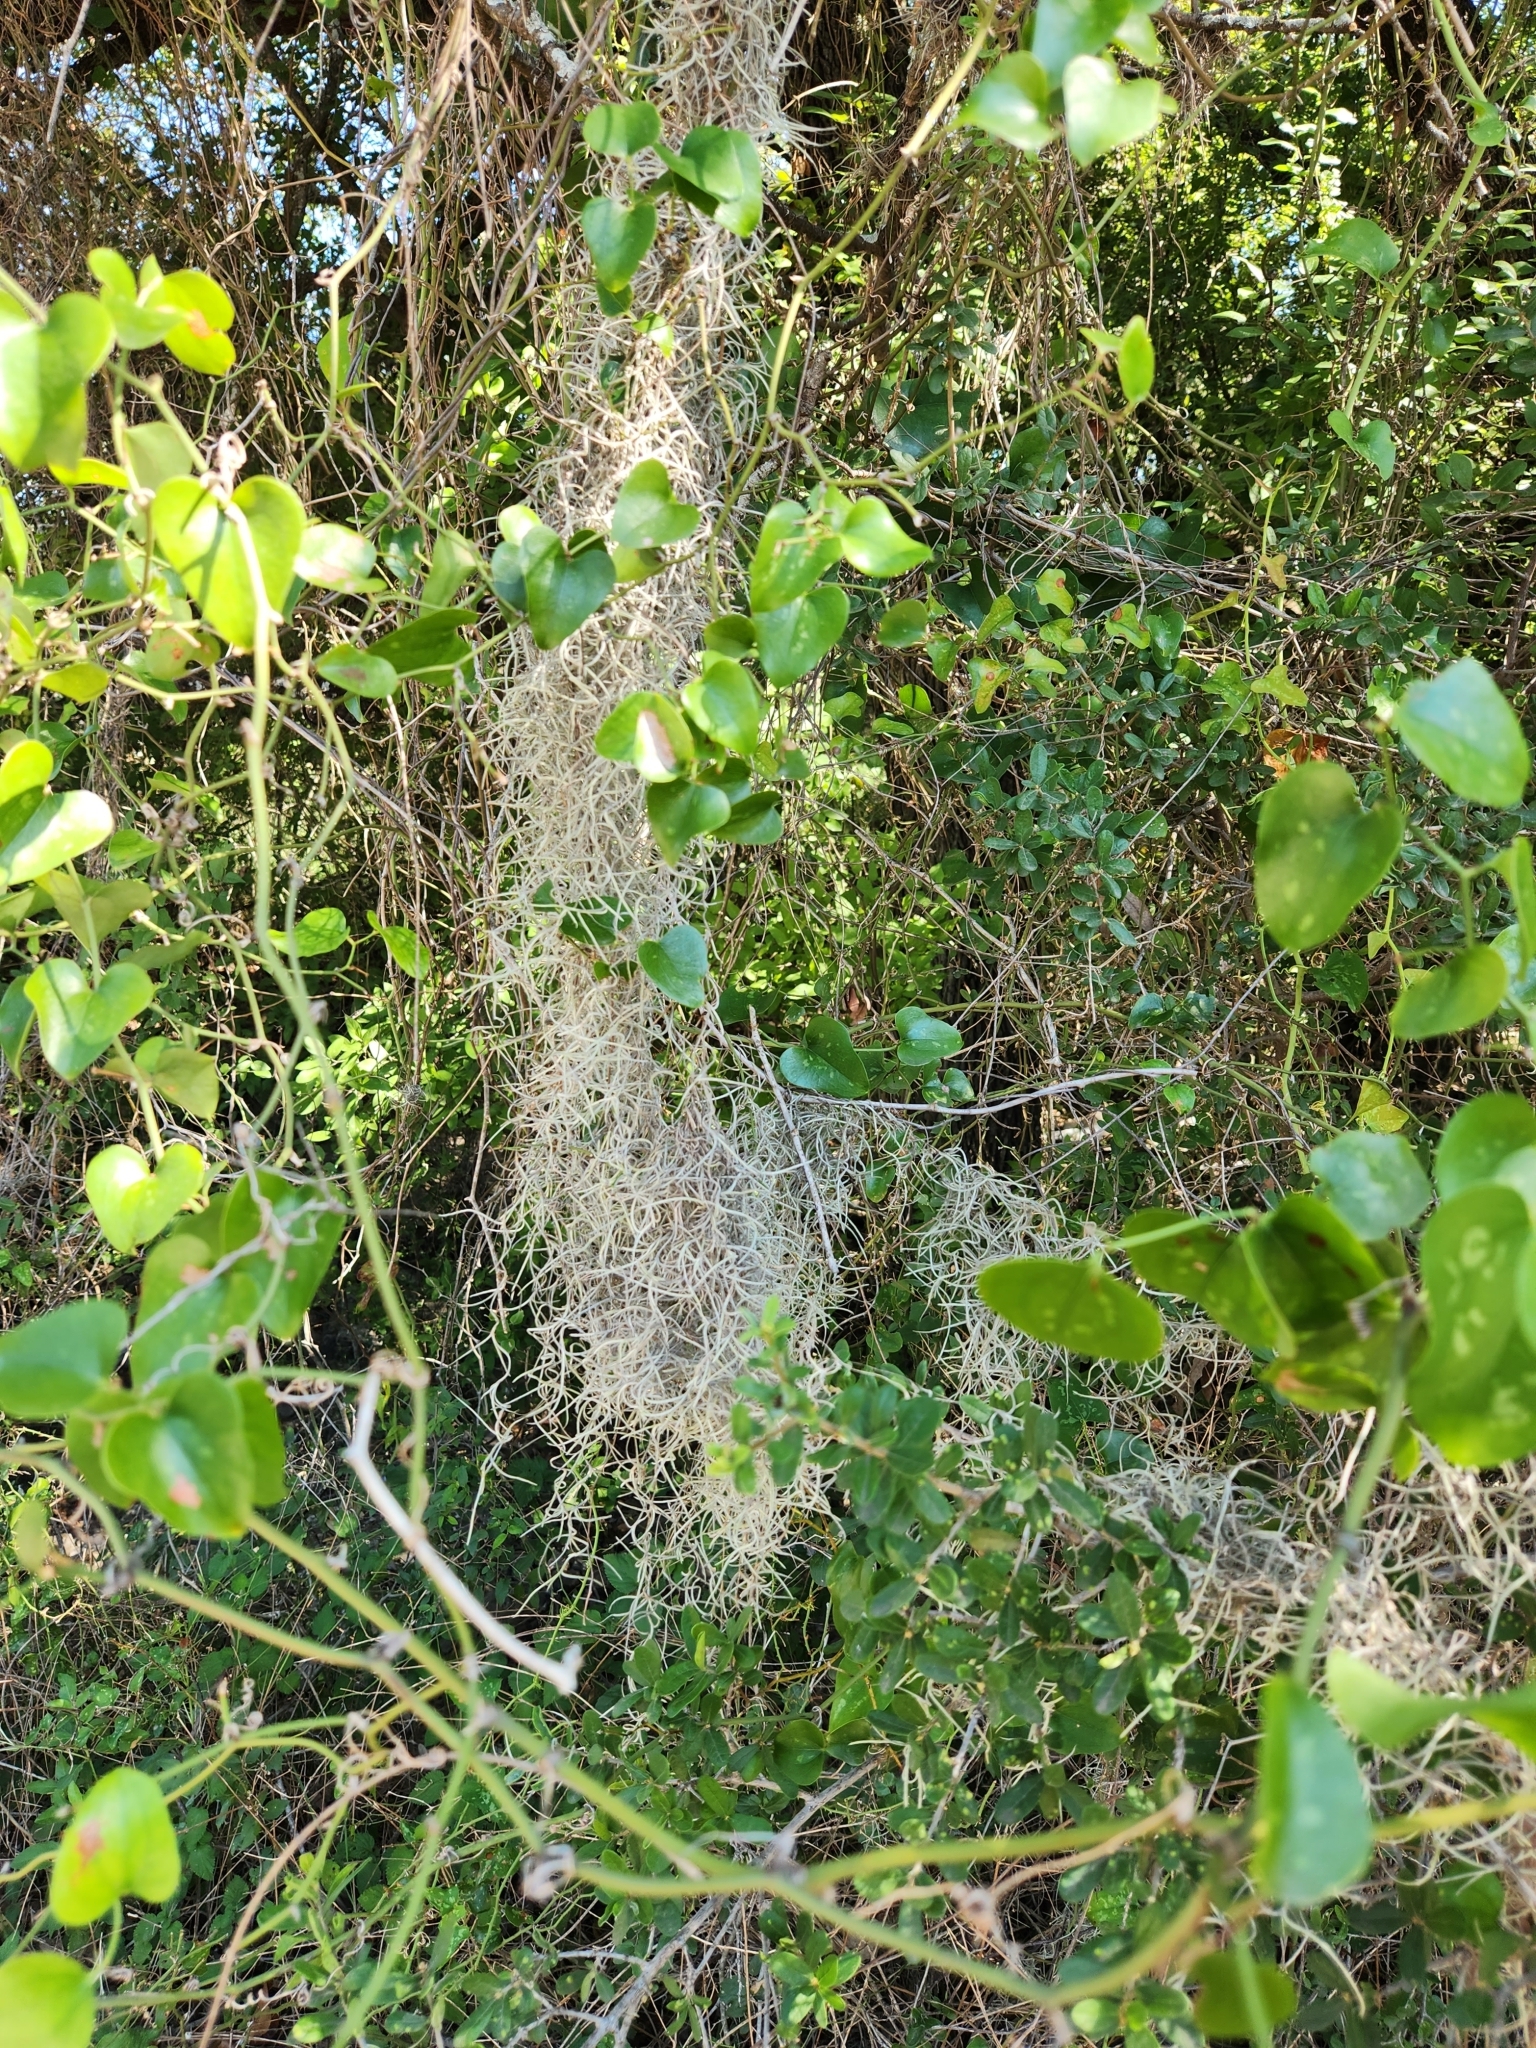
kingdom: Plantae
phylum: Tracheophyta
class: Liliopsida
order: Poales
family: Bromeliaceae
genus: Tillandsia
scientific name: Tillandsia usneoides
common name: Spanish moss
